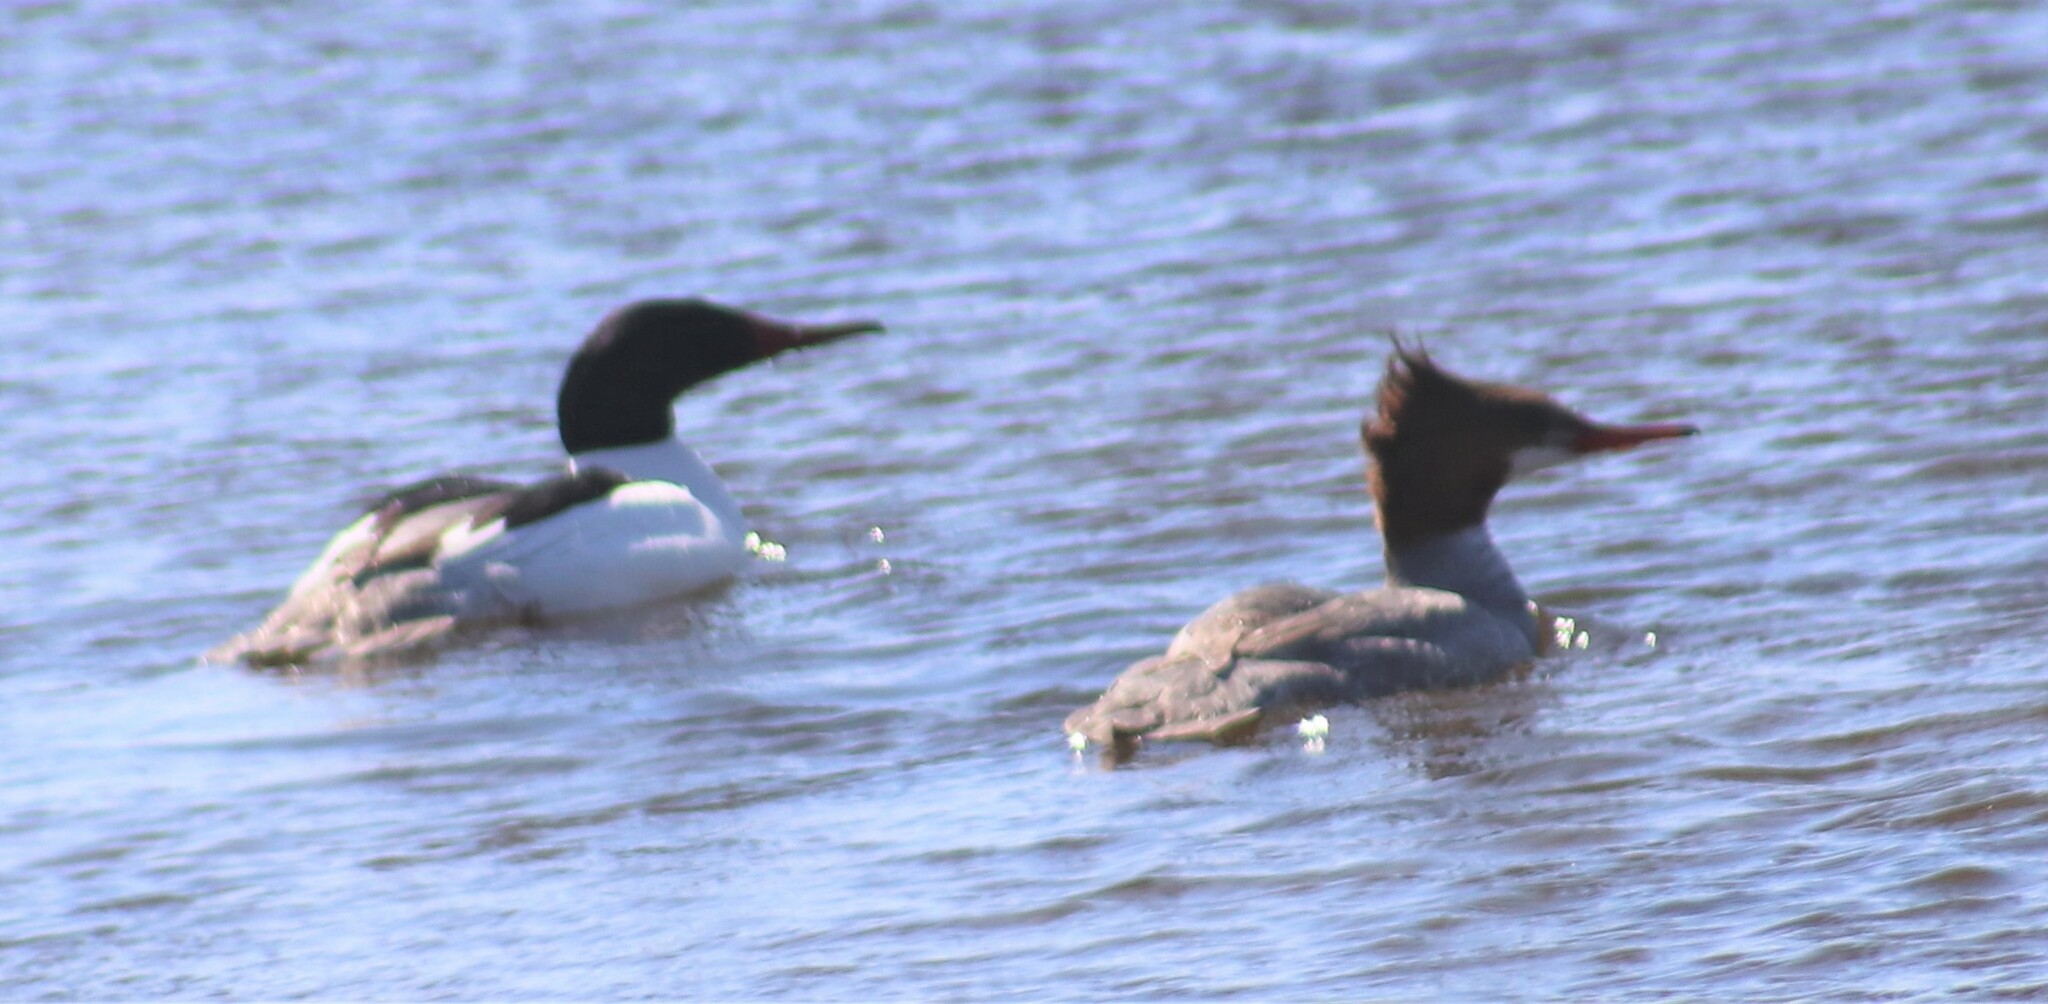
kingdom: Animalia
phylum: Chordata
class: Aves
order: Anseriformes
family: Anatidae
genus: Mergus
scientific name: Mergus merganser
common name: Common merganser
